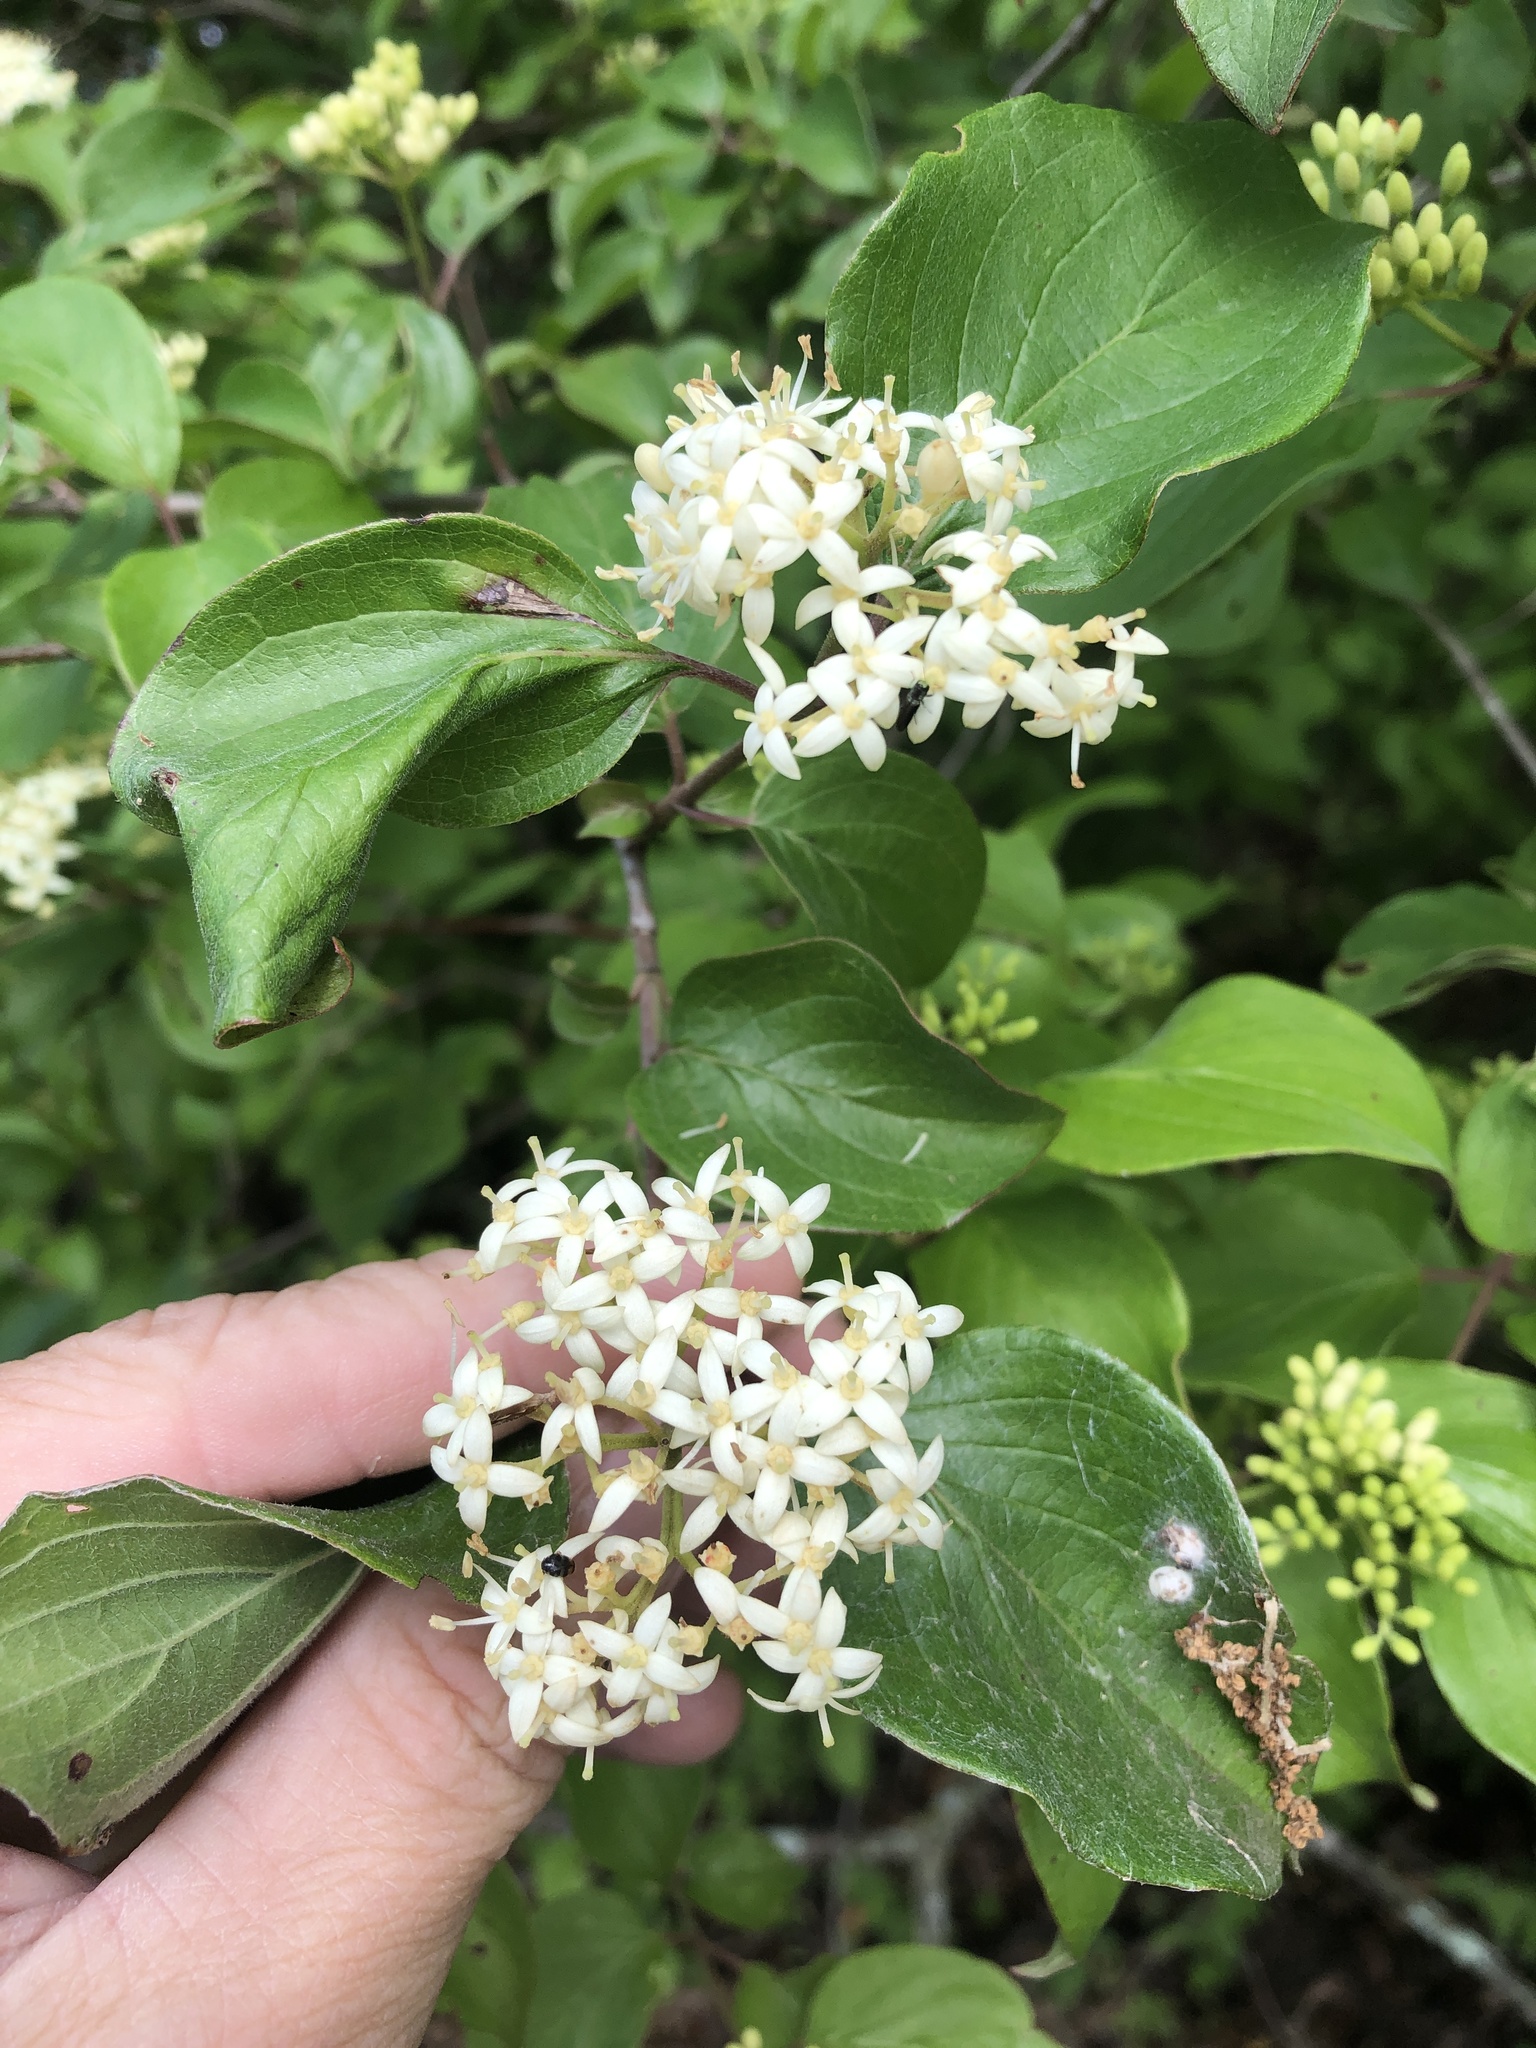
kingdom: Plantae
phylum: Tracheophyta
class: Magnoliopsida
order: Cornales
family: Cornaceae
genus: Cornus
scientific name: Cornus drummondii
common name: Rough-leaf dogwood
